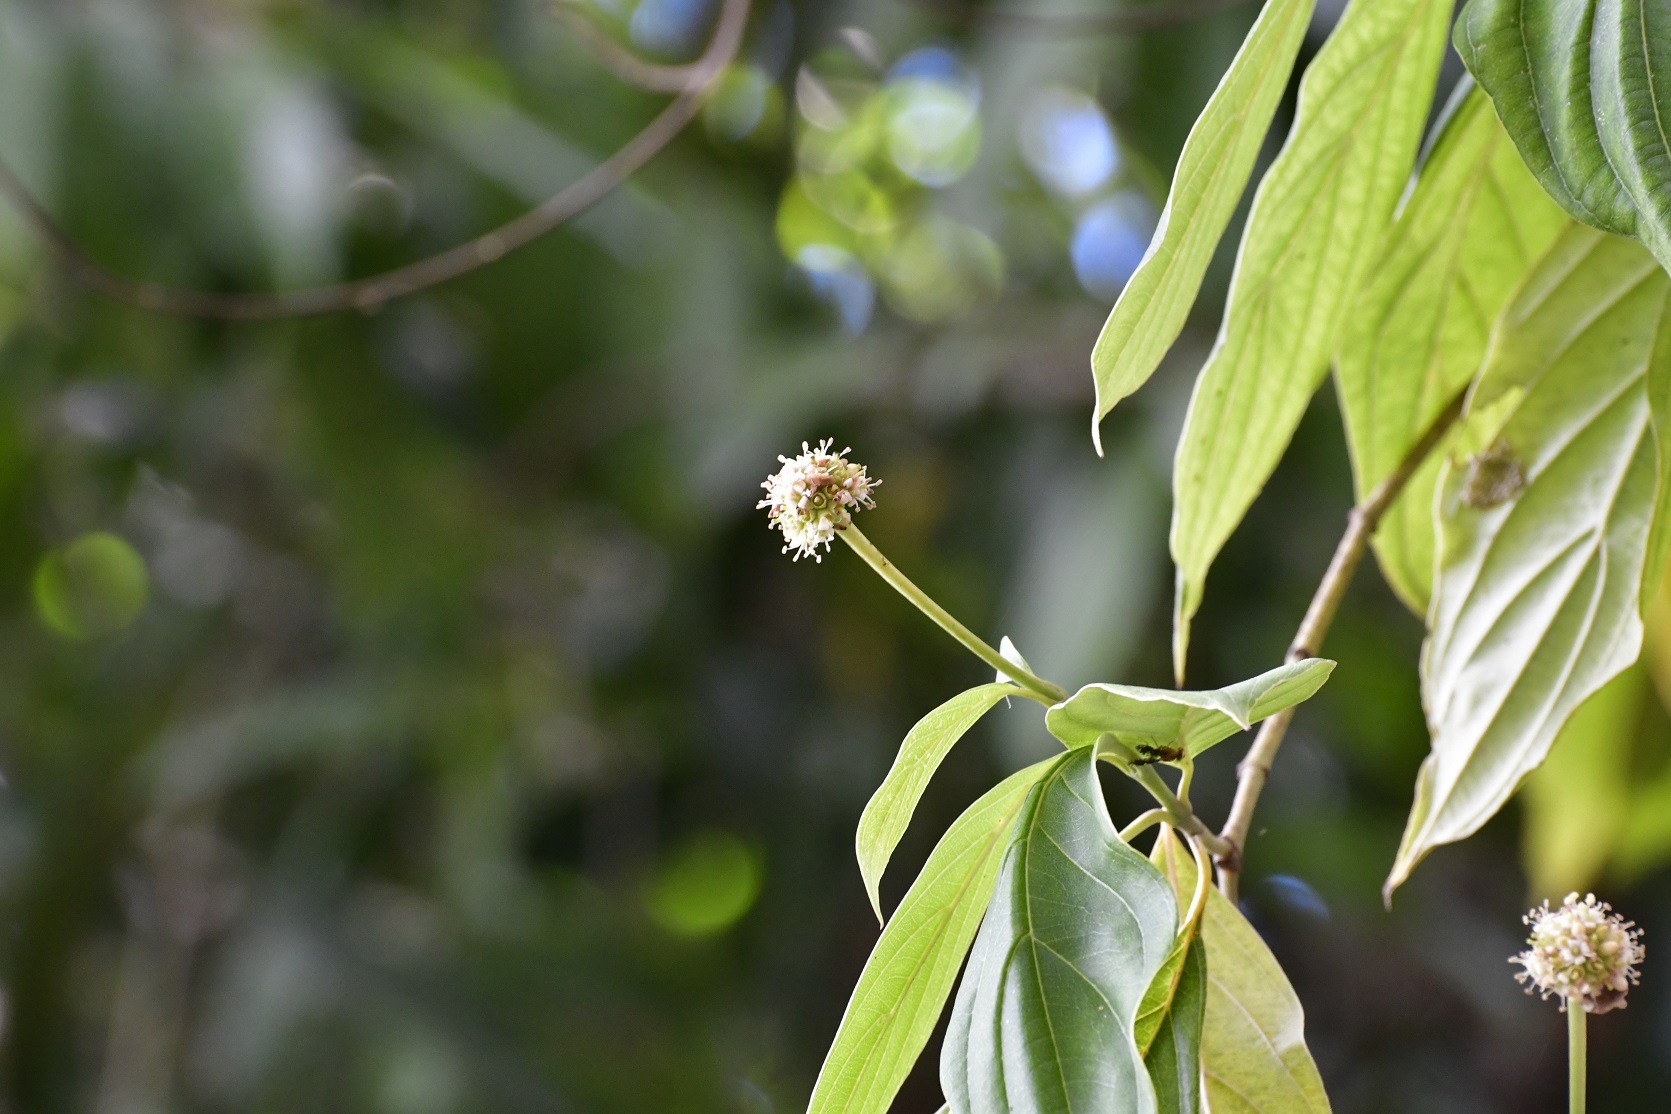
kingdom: Plantae
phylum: Tracheophyta
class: Magnoliopsida
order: Cornales
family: Cornaceae
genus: Cornus
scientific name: Cornus disciflora
